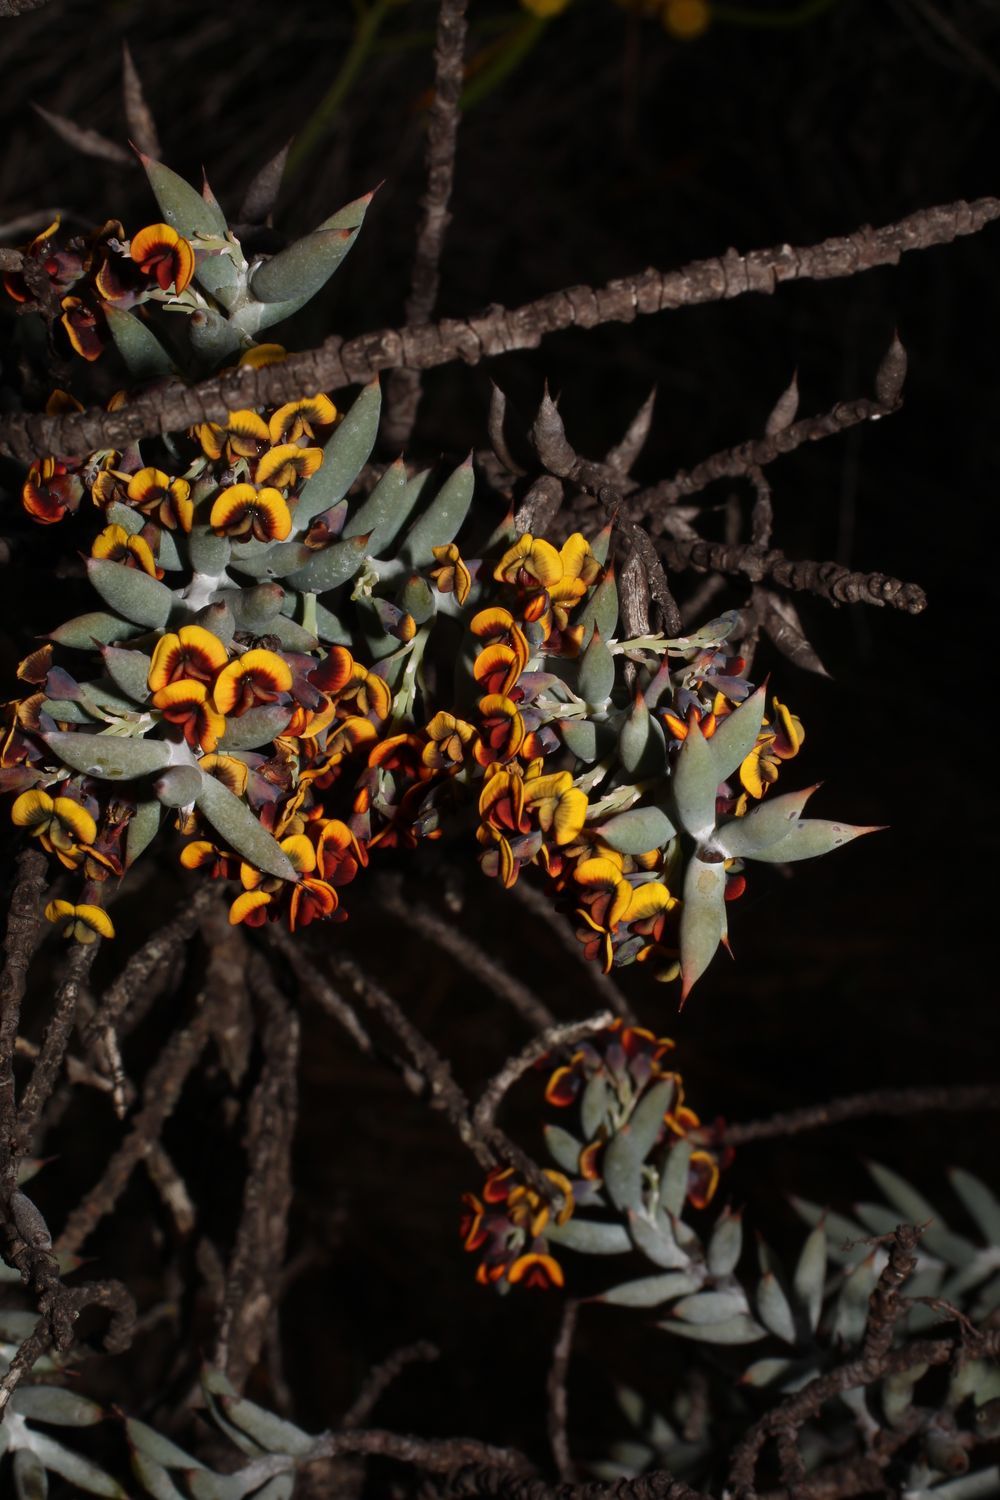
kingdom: Plantae
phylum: Tracheophyta
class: Magnoliopsida
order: Fabales
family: Fabaceae
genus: Daviesia
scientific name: Daviesia pachyphylla
